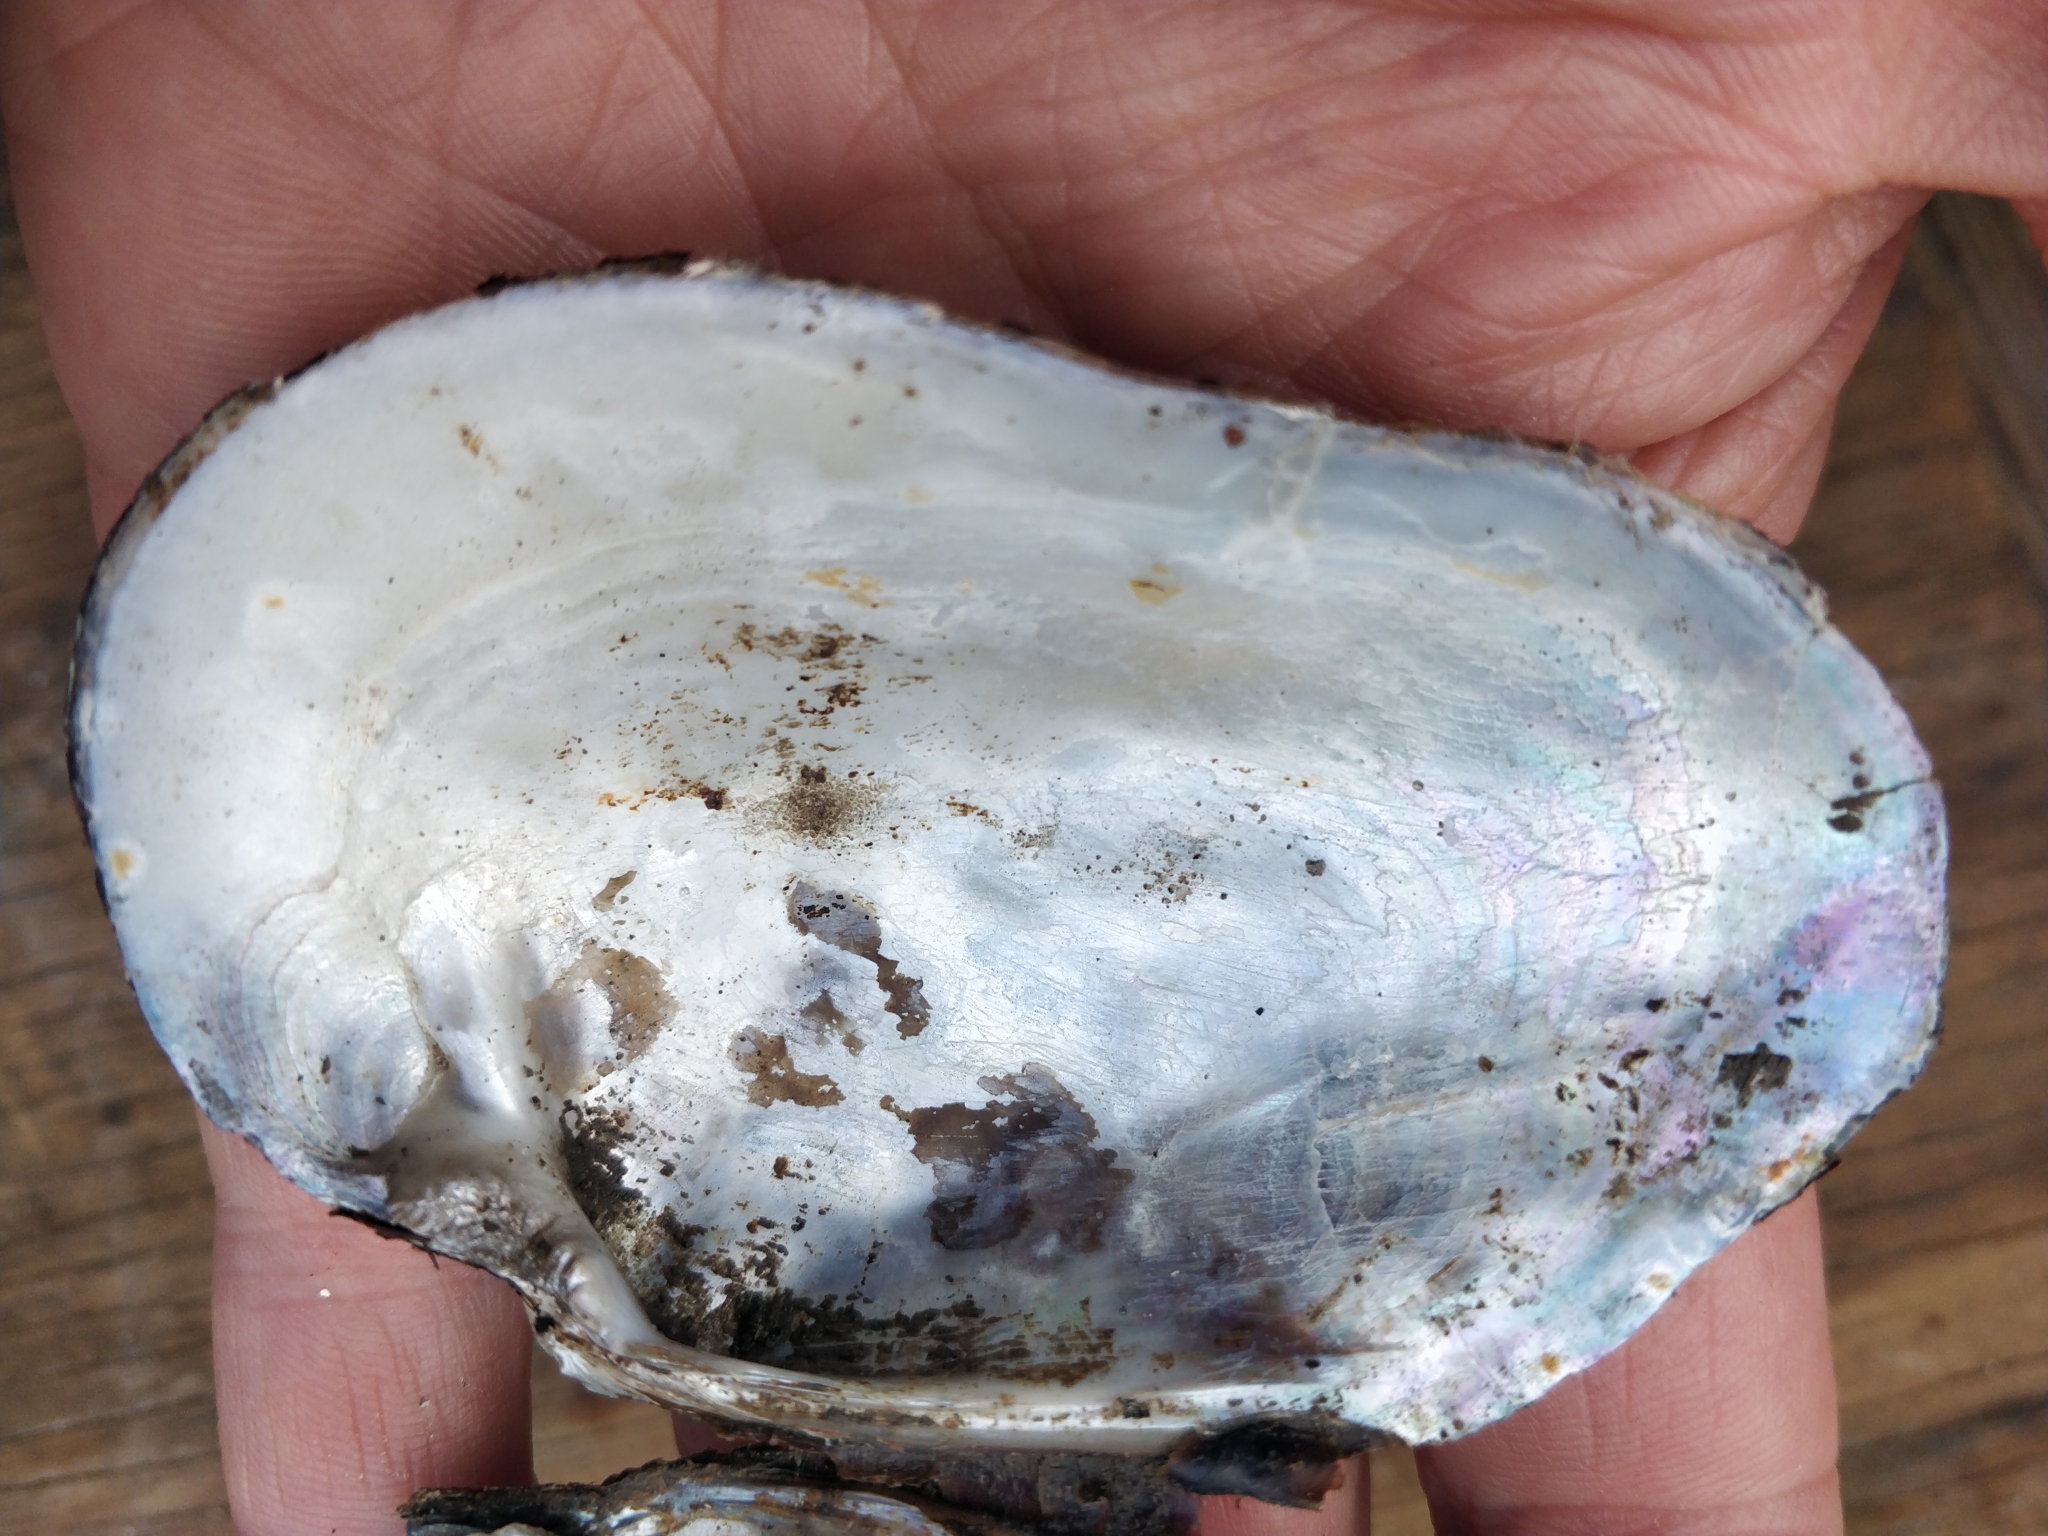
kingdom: Animalia
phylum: Mollusca
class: Bivalvia
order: Unionida
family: Unionidae
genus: Arcidens
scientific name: Arcidens confragosus
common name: Rock pocketbook
